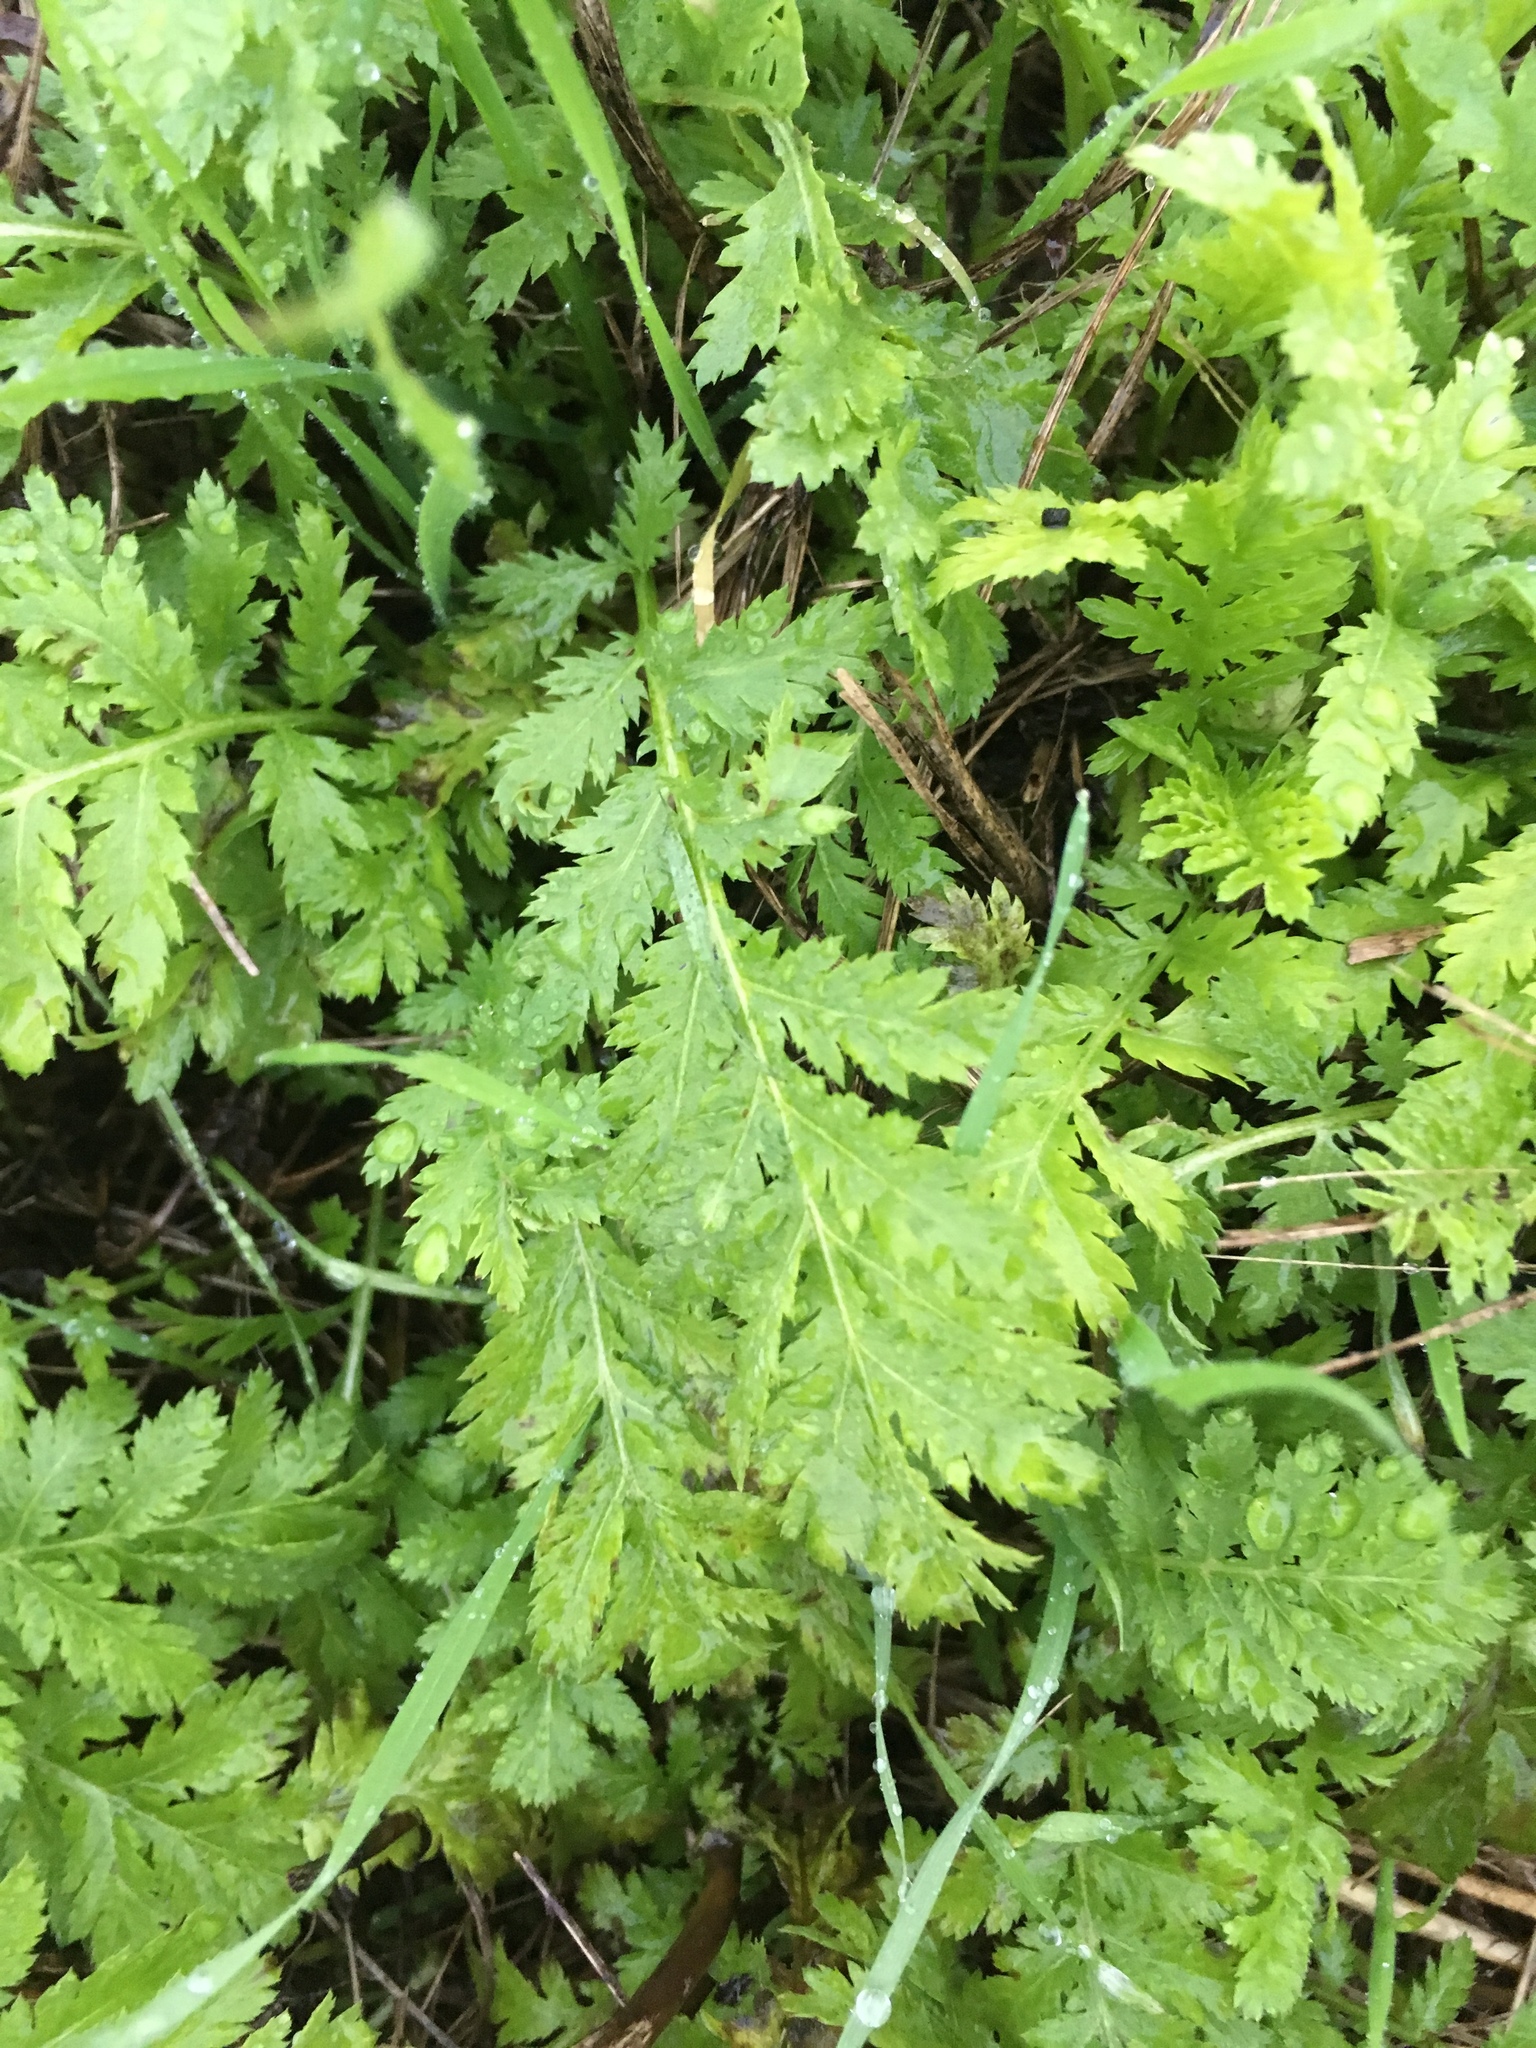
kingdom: Plantae
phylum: Tracheophyta
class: Magnoliopsida
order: Asterales
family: Asteraceae
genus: Tanacetum
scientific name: Tanacetum vulgare
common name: Common tansy
